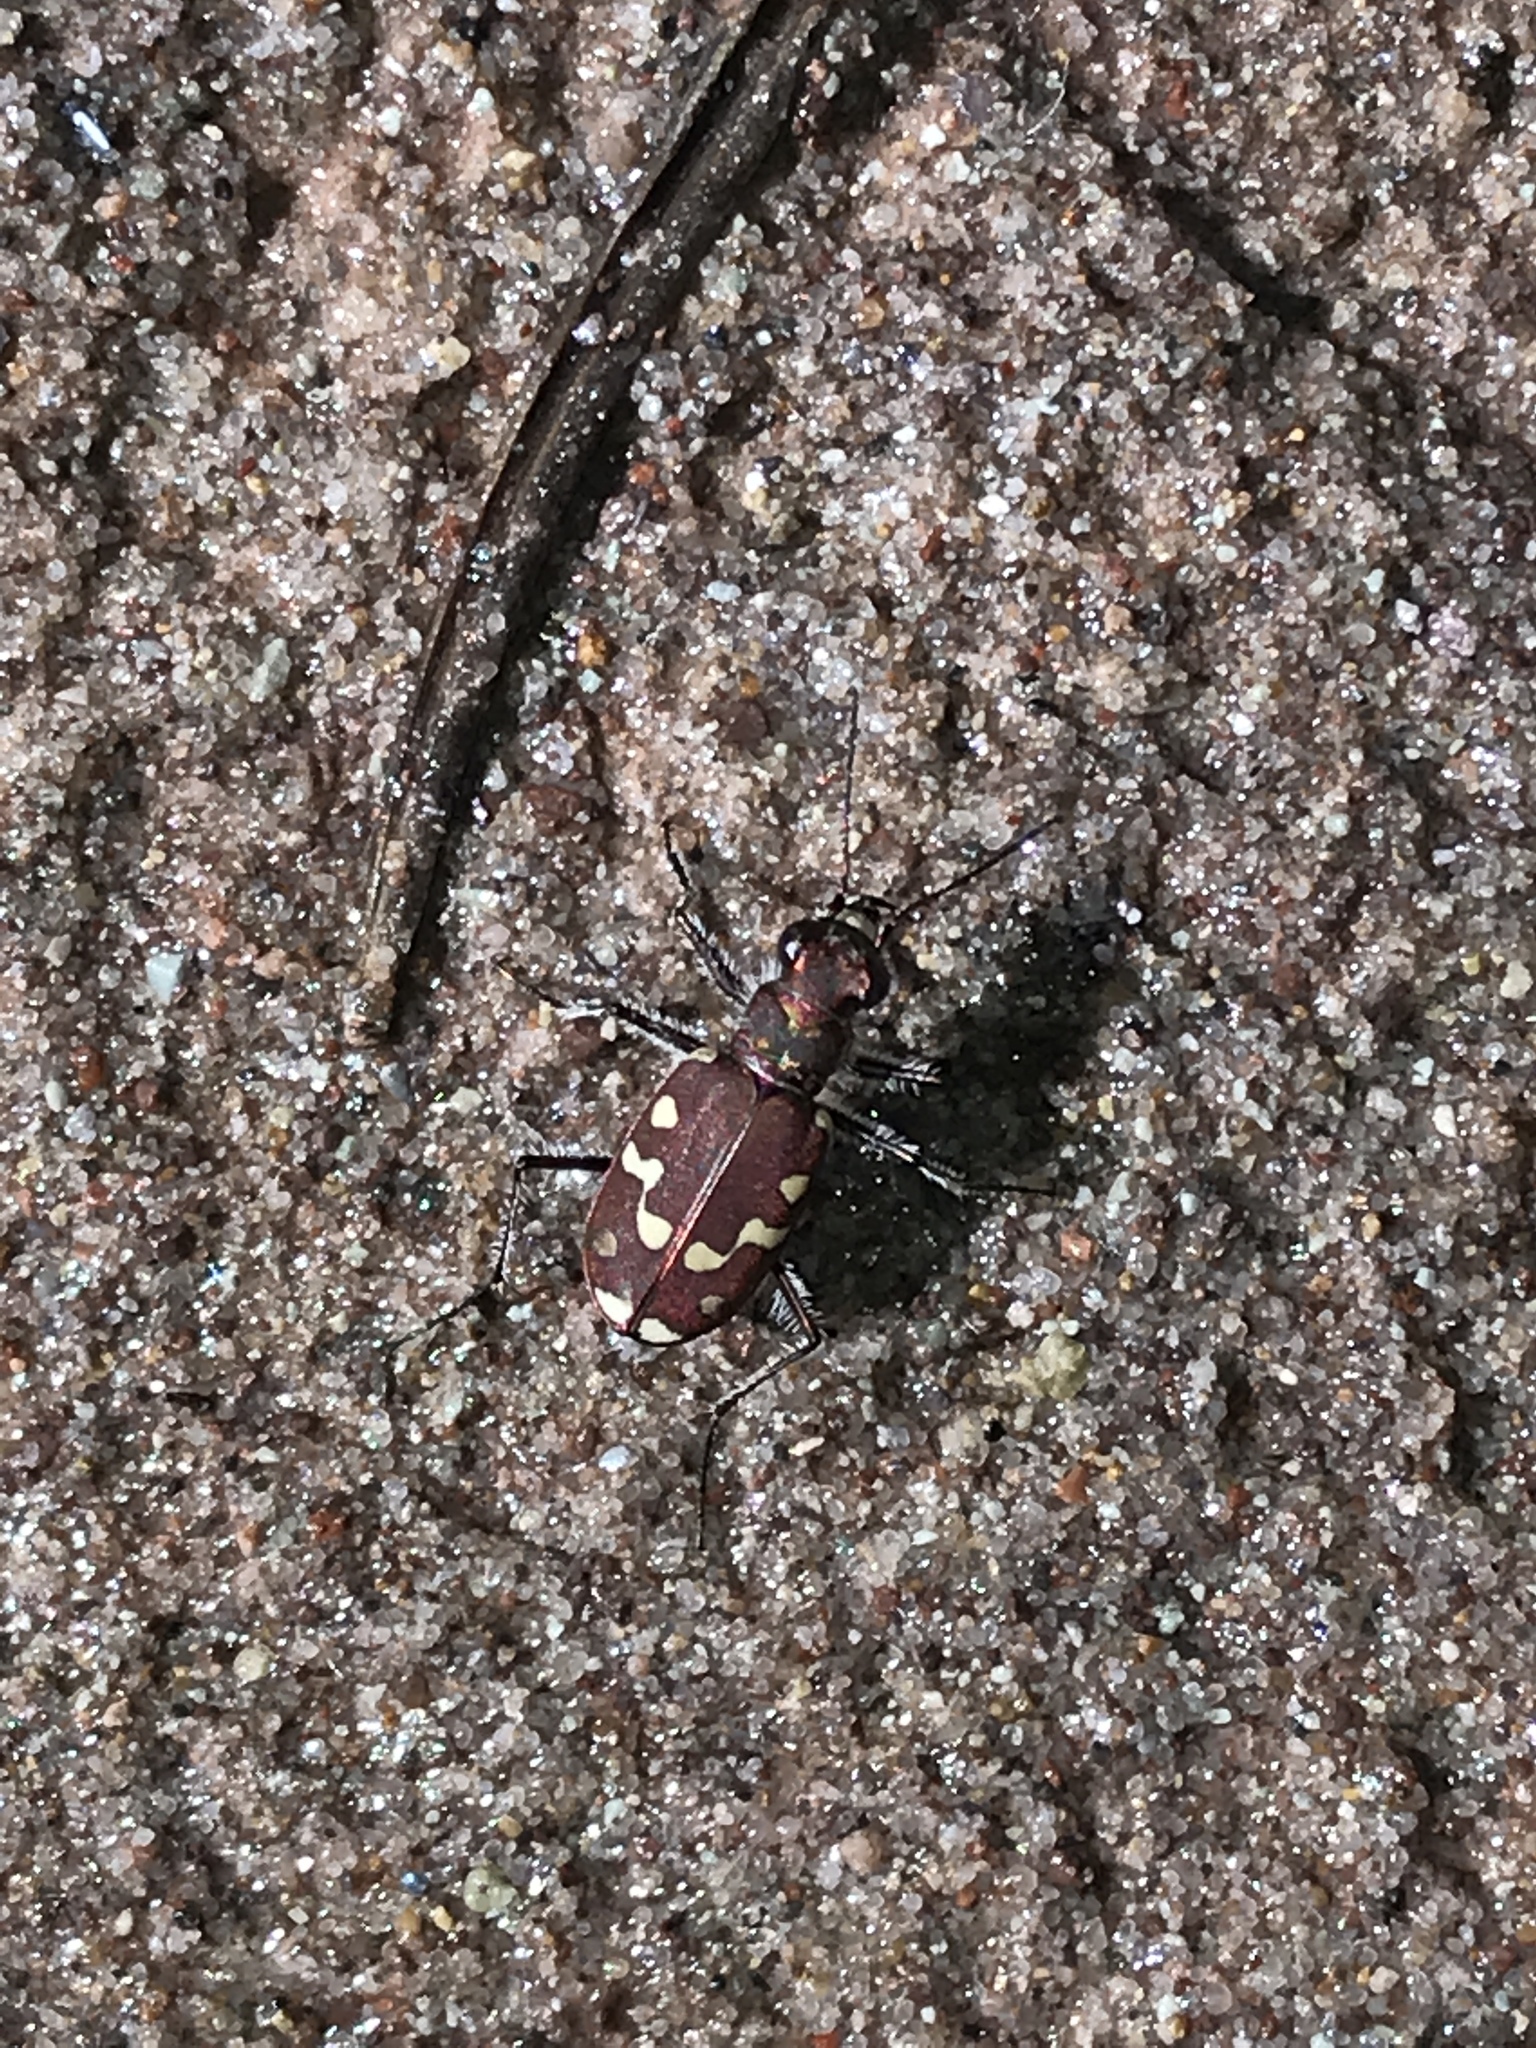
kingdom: Animalia
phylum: Arthropoda
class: Insecta
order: Coleoptera
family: Carabidae
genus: Cicindela
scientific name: Cicindela oregona
